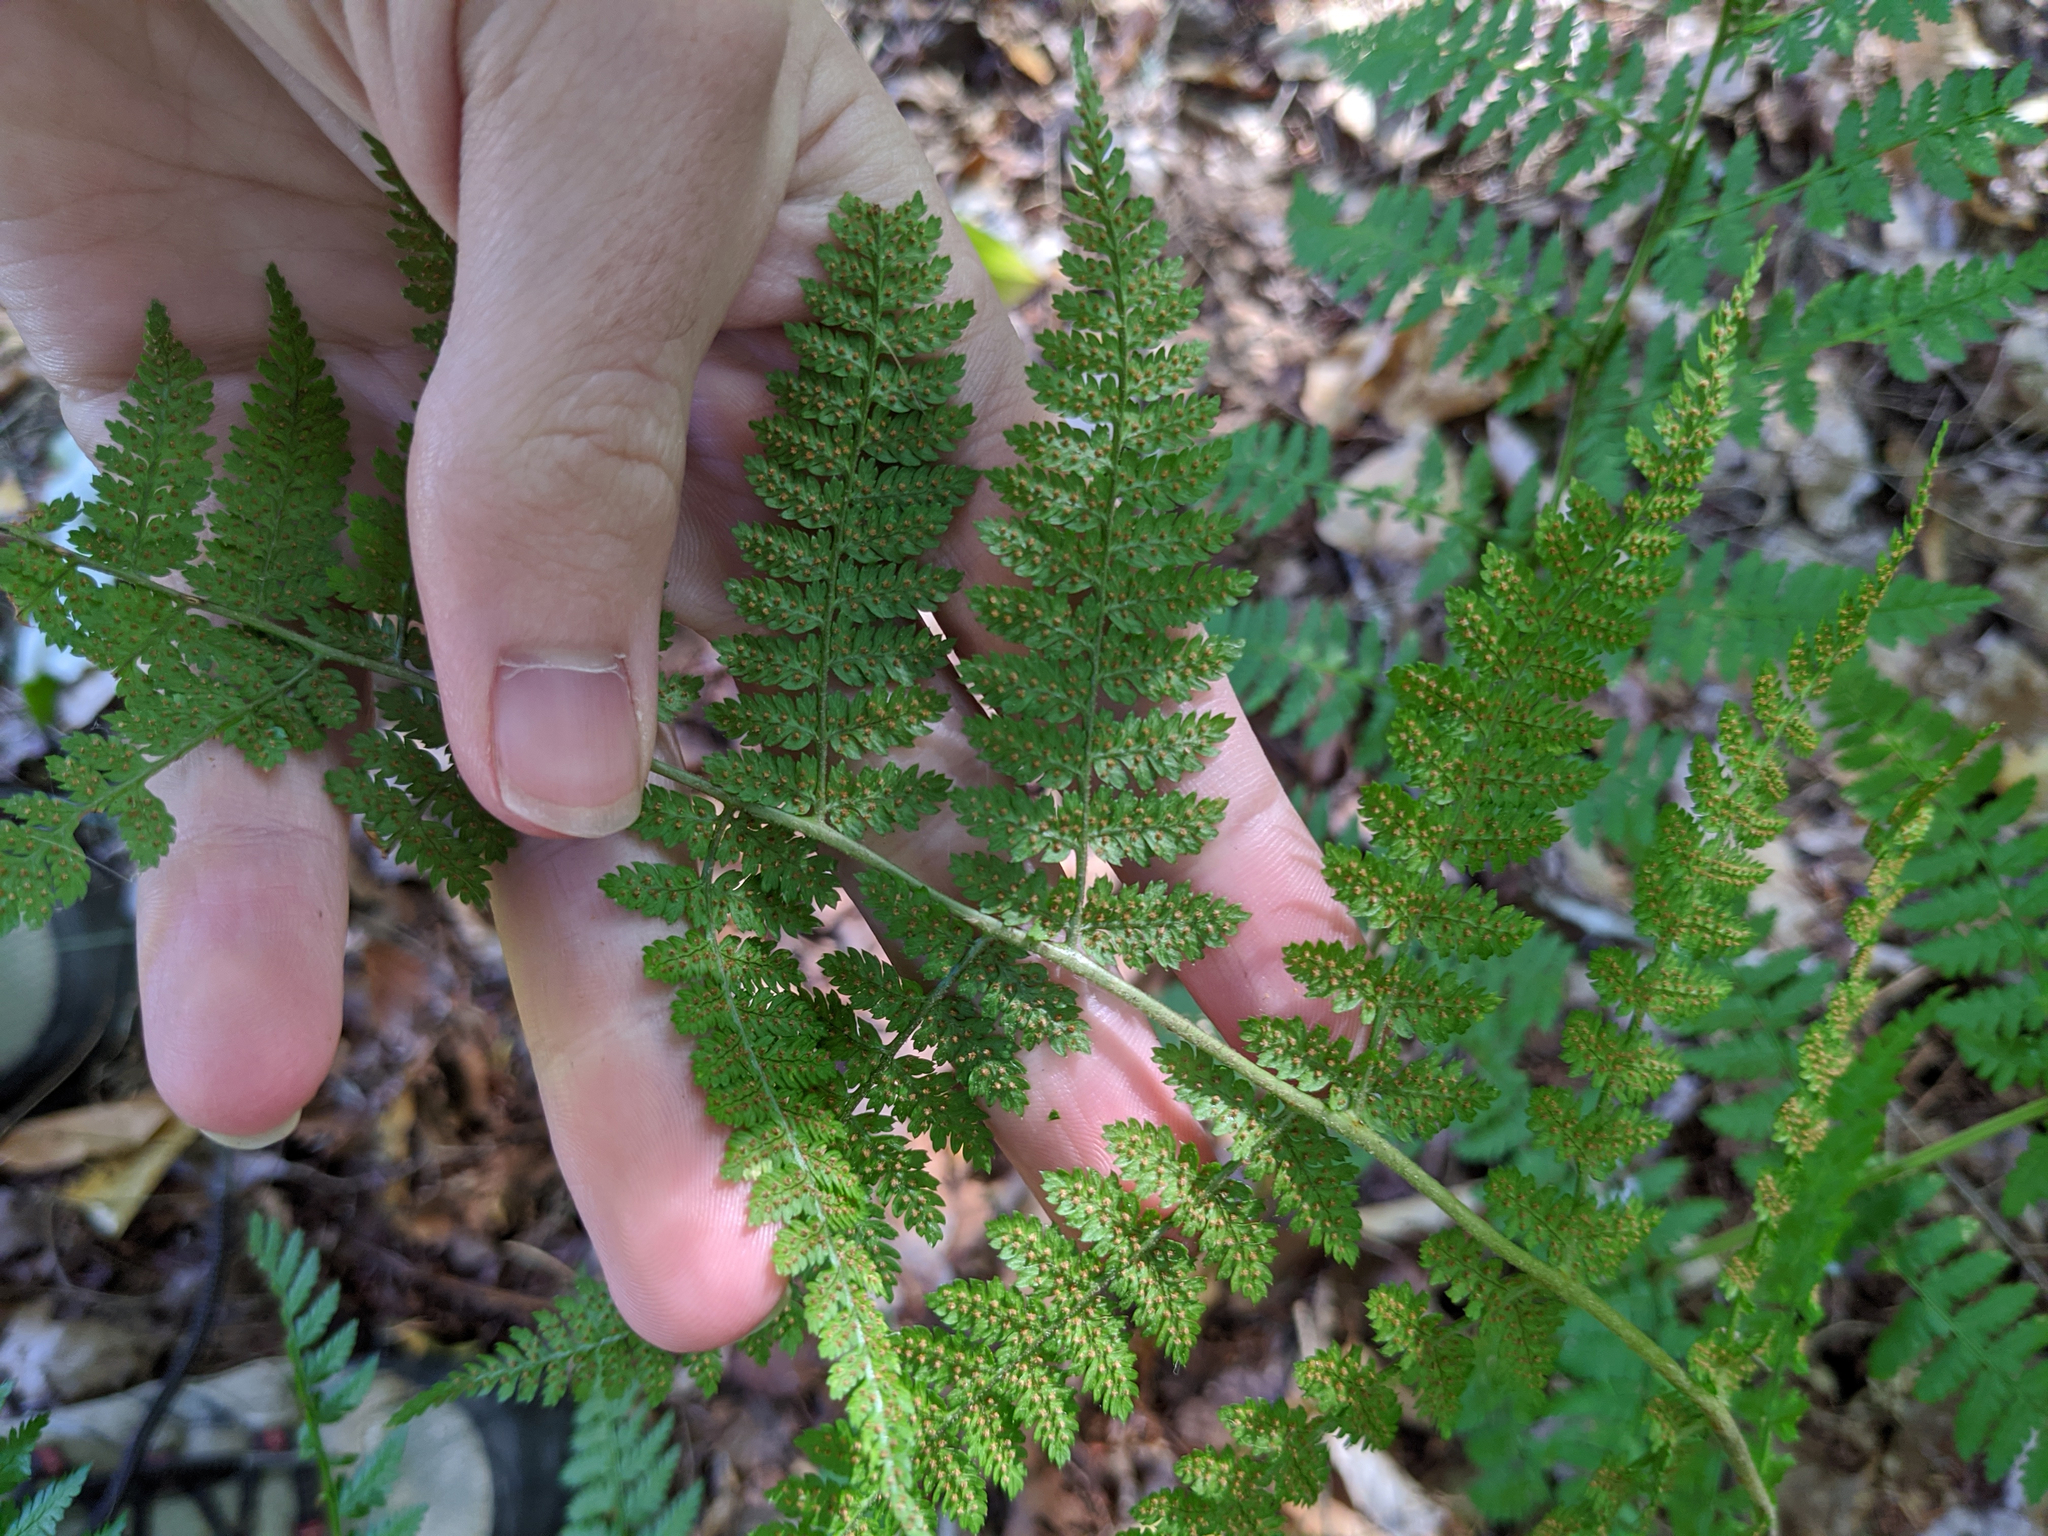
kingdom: Plantae
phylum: Tracheophyta
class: Polypodiopsida
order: Polypodiales
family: Dryopteridaceae
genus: Dryopteris
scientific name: Dryopteris intermedia
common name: Evergreen wood fern
